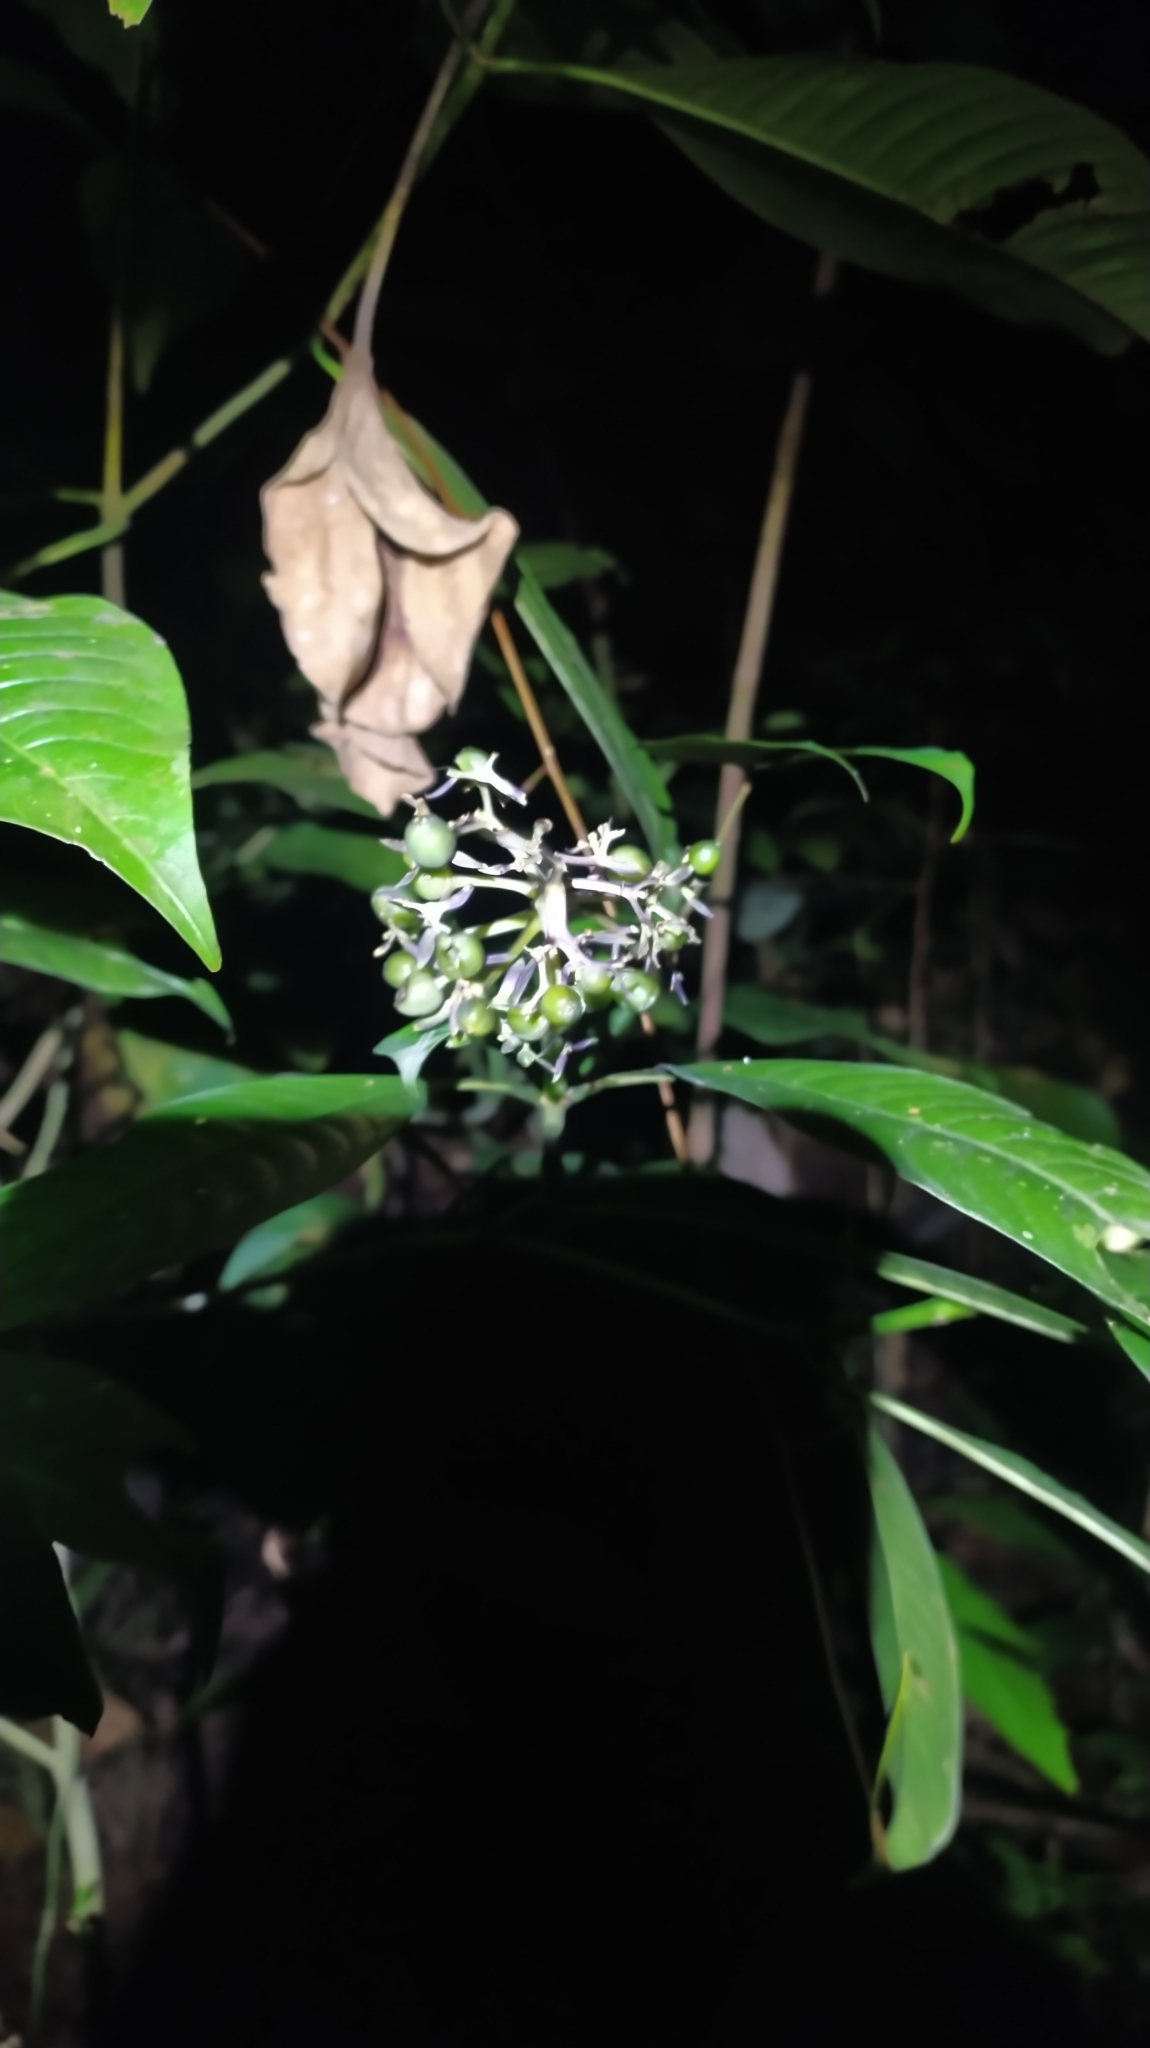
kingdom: Plantae
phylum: Tracheophyta
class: Magnoliopsida
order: Gentianales
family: Rubiaceae
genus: Palicourea
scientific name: Palicourea violacea
